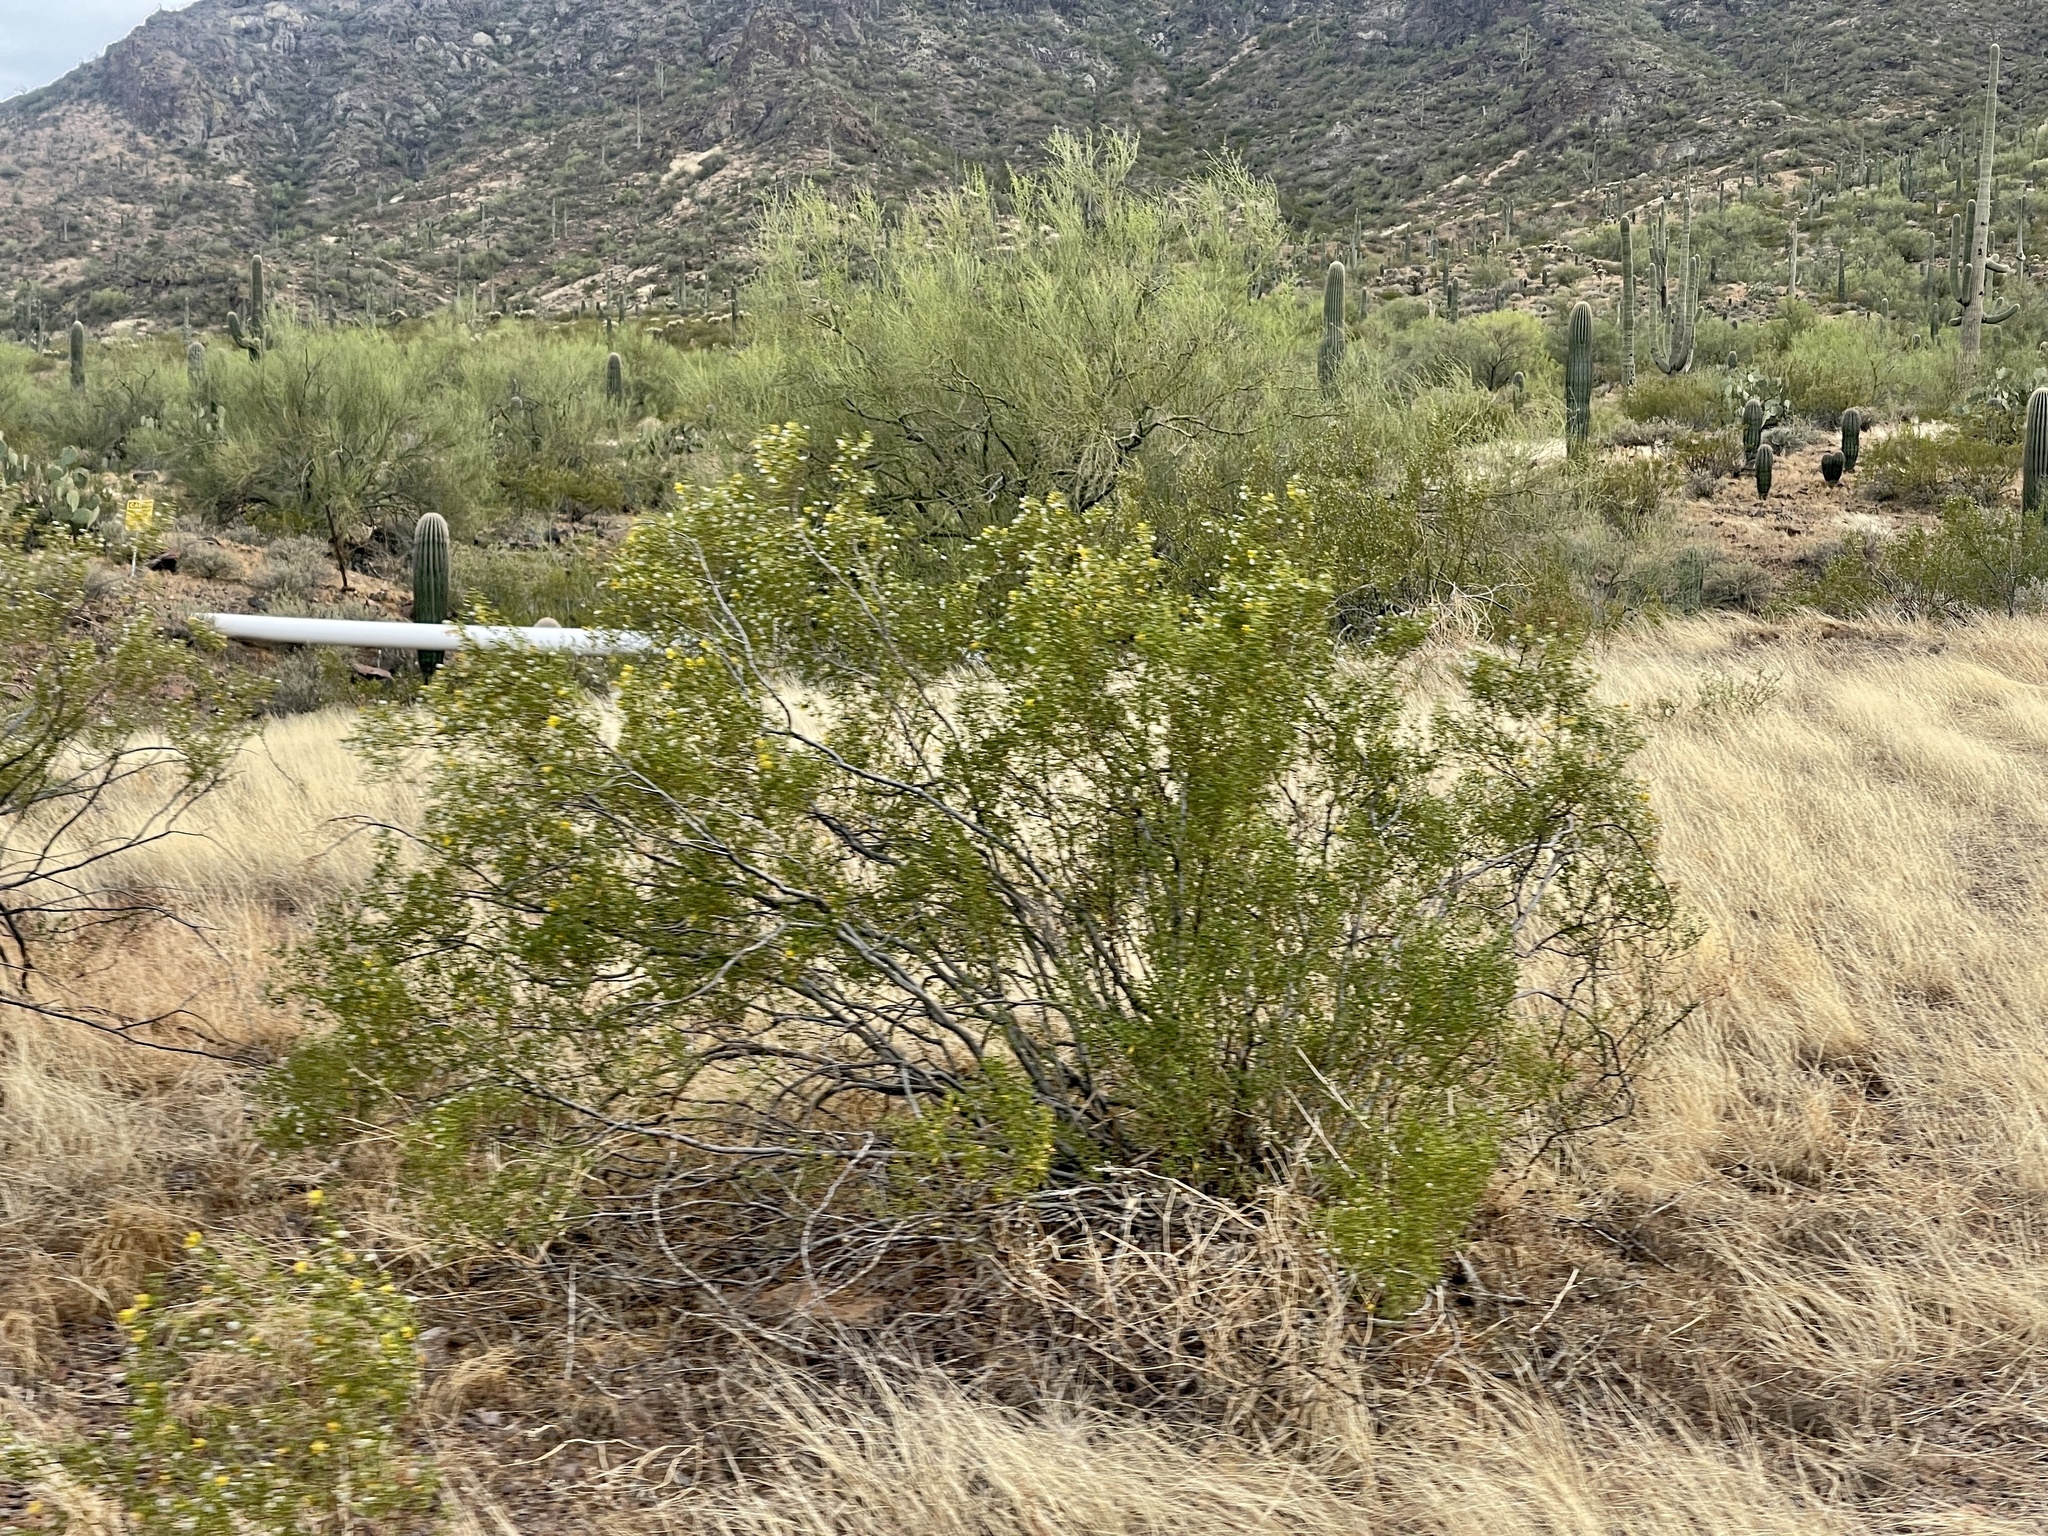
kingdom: Plantae
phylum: Tracheophyta
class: Magnoliopsida
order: Zygophyllales
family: Zygophyllaceae
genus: Larrea
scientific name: Larrea tridentata
